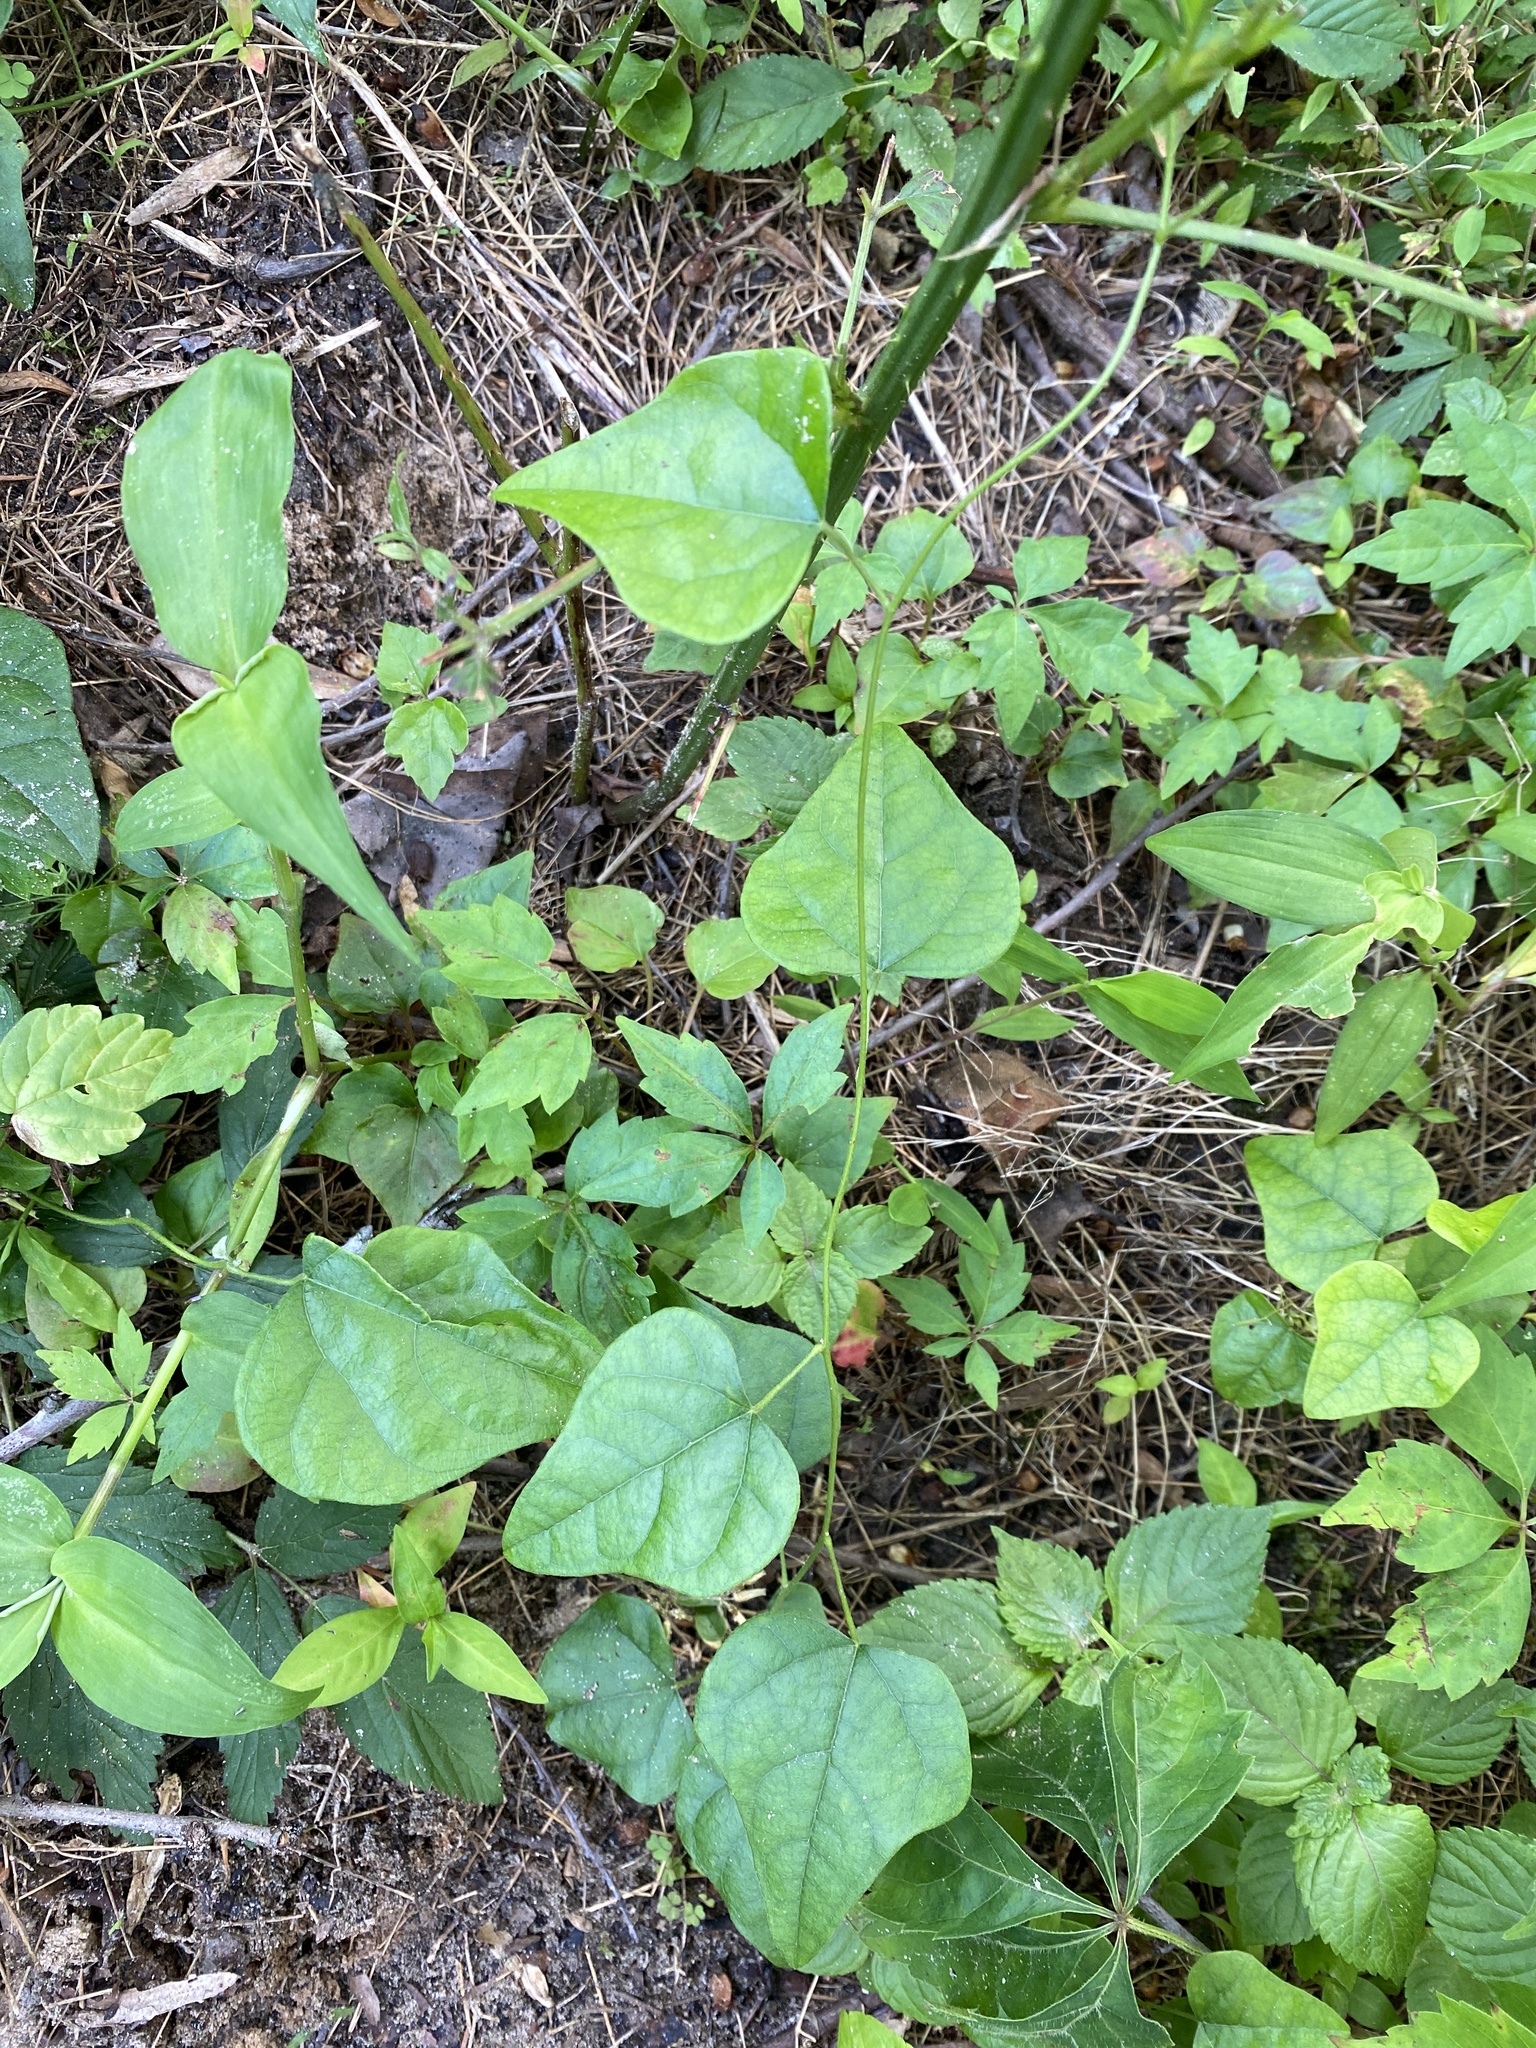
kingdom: Plantae
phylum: Tracheophyta
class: Magnoliopsida
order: Ranunculales
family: Menispermaceae
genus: Cocculus
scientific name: Cocculus carolinus
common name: Carolina moonseed
